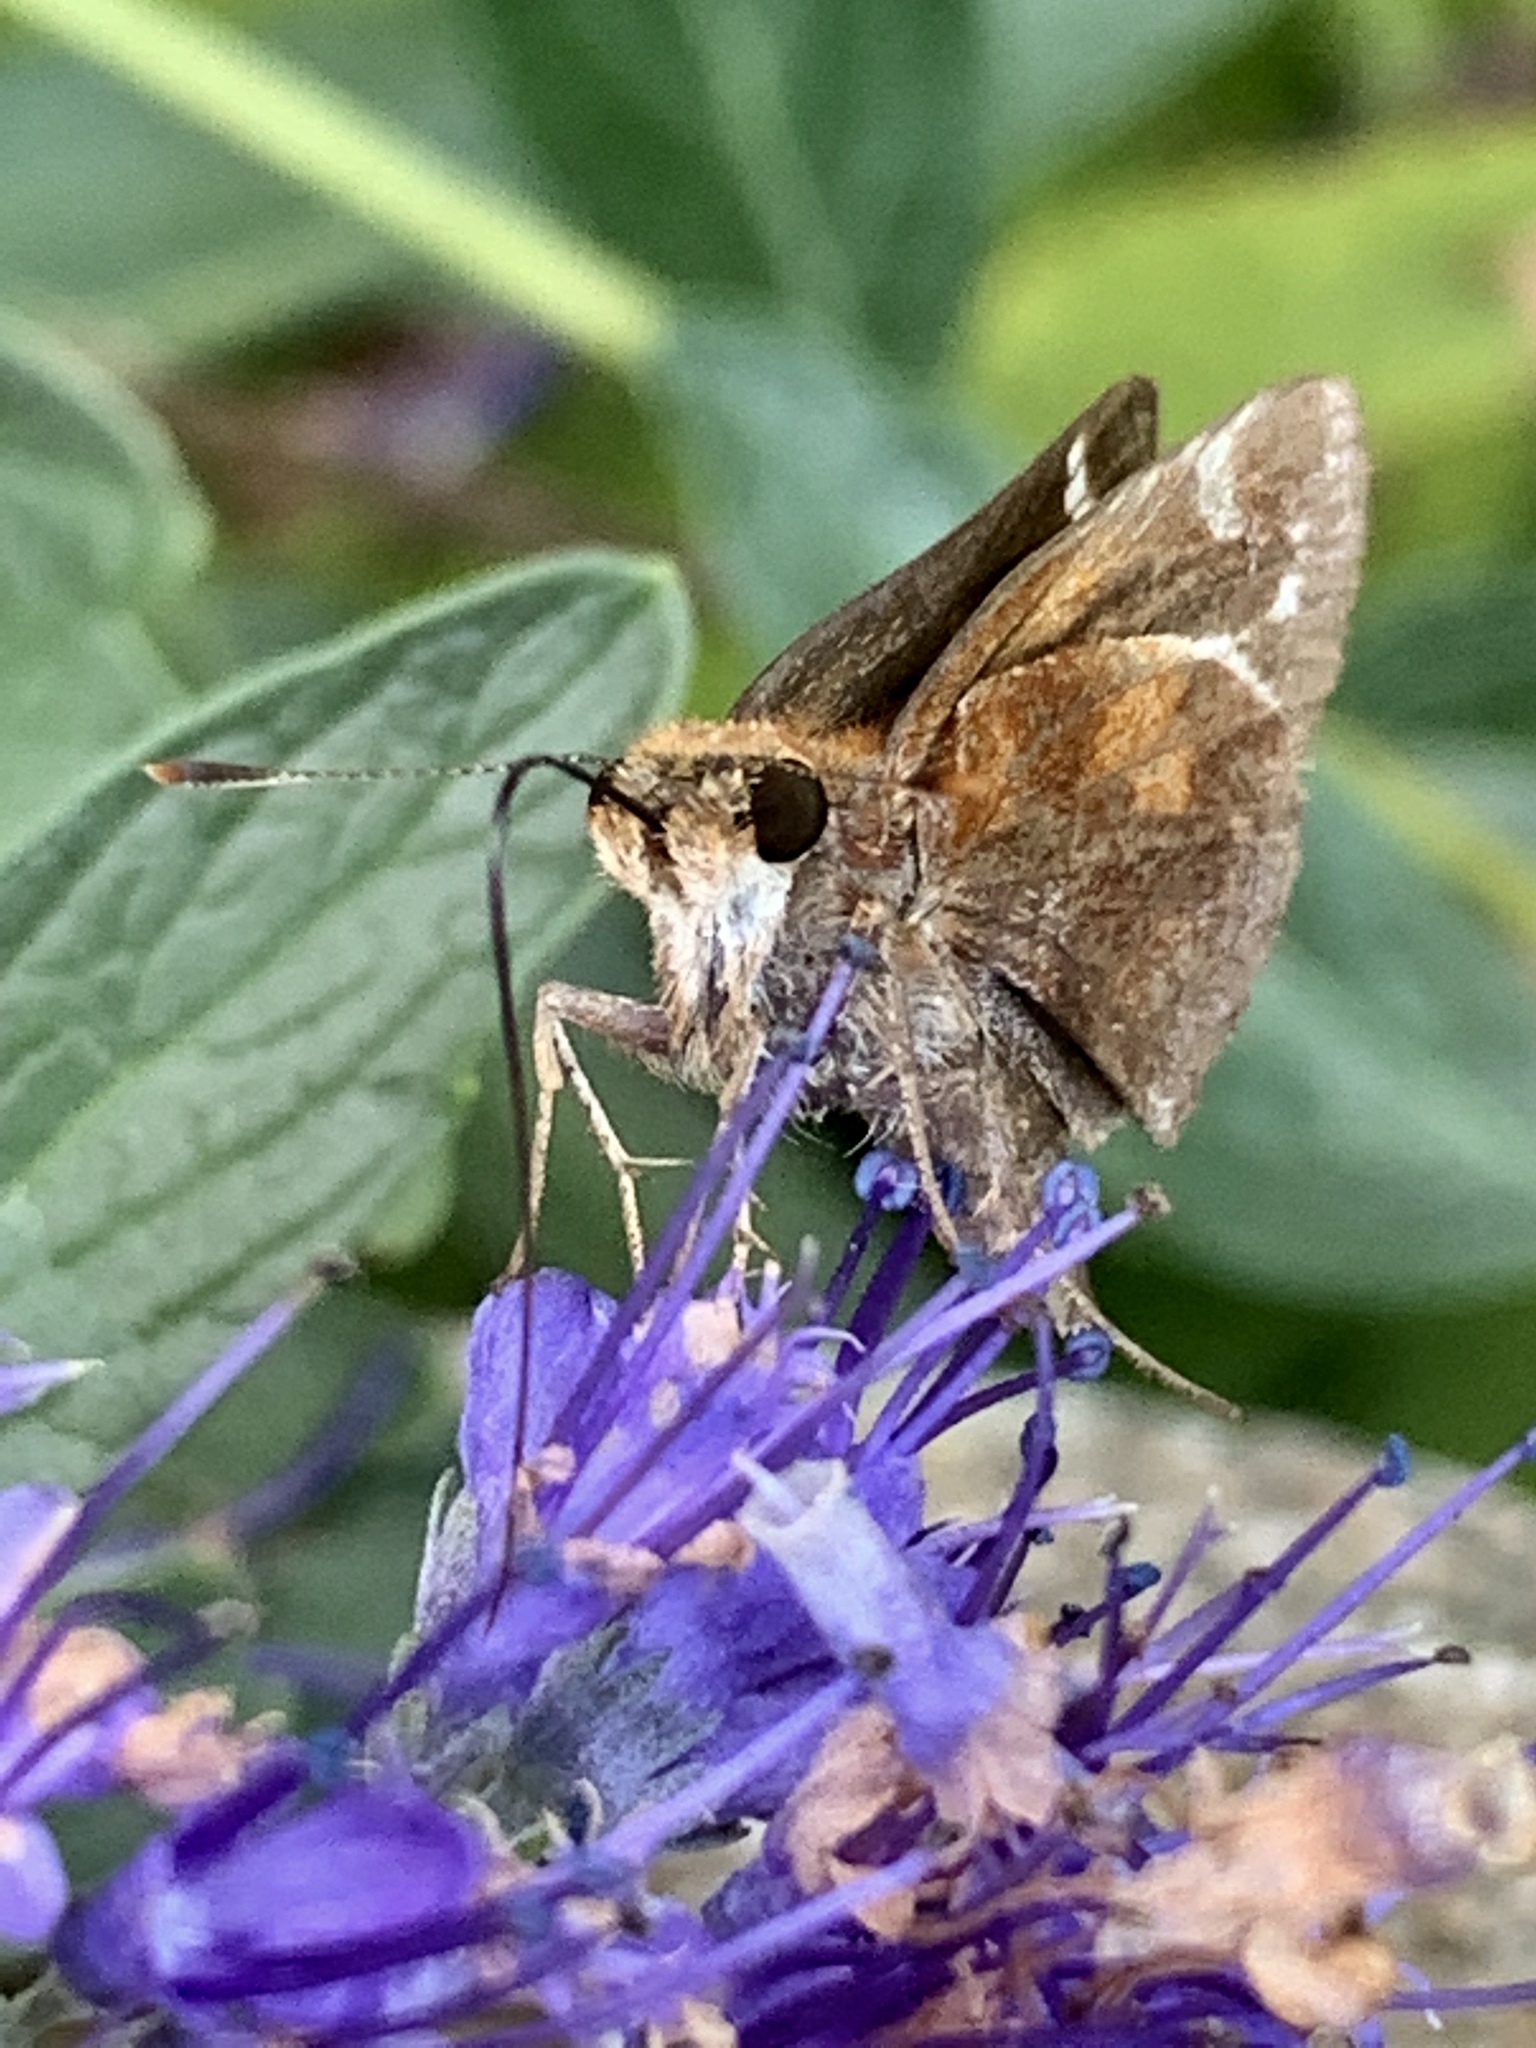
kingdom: Animalia
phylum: Arthropoda
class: Insecta
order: Lepidoptera
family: Hesperiidae
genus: Lon
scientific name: Lon zabulon
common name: Zabulon skipper
